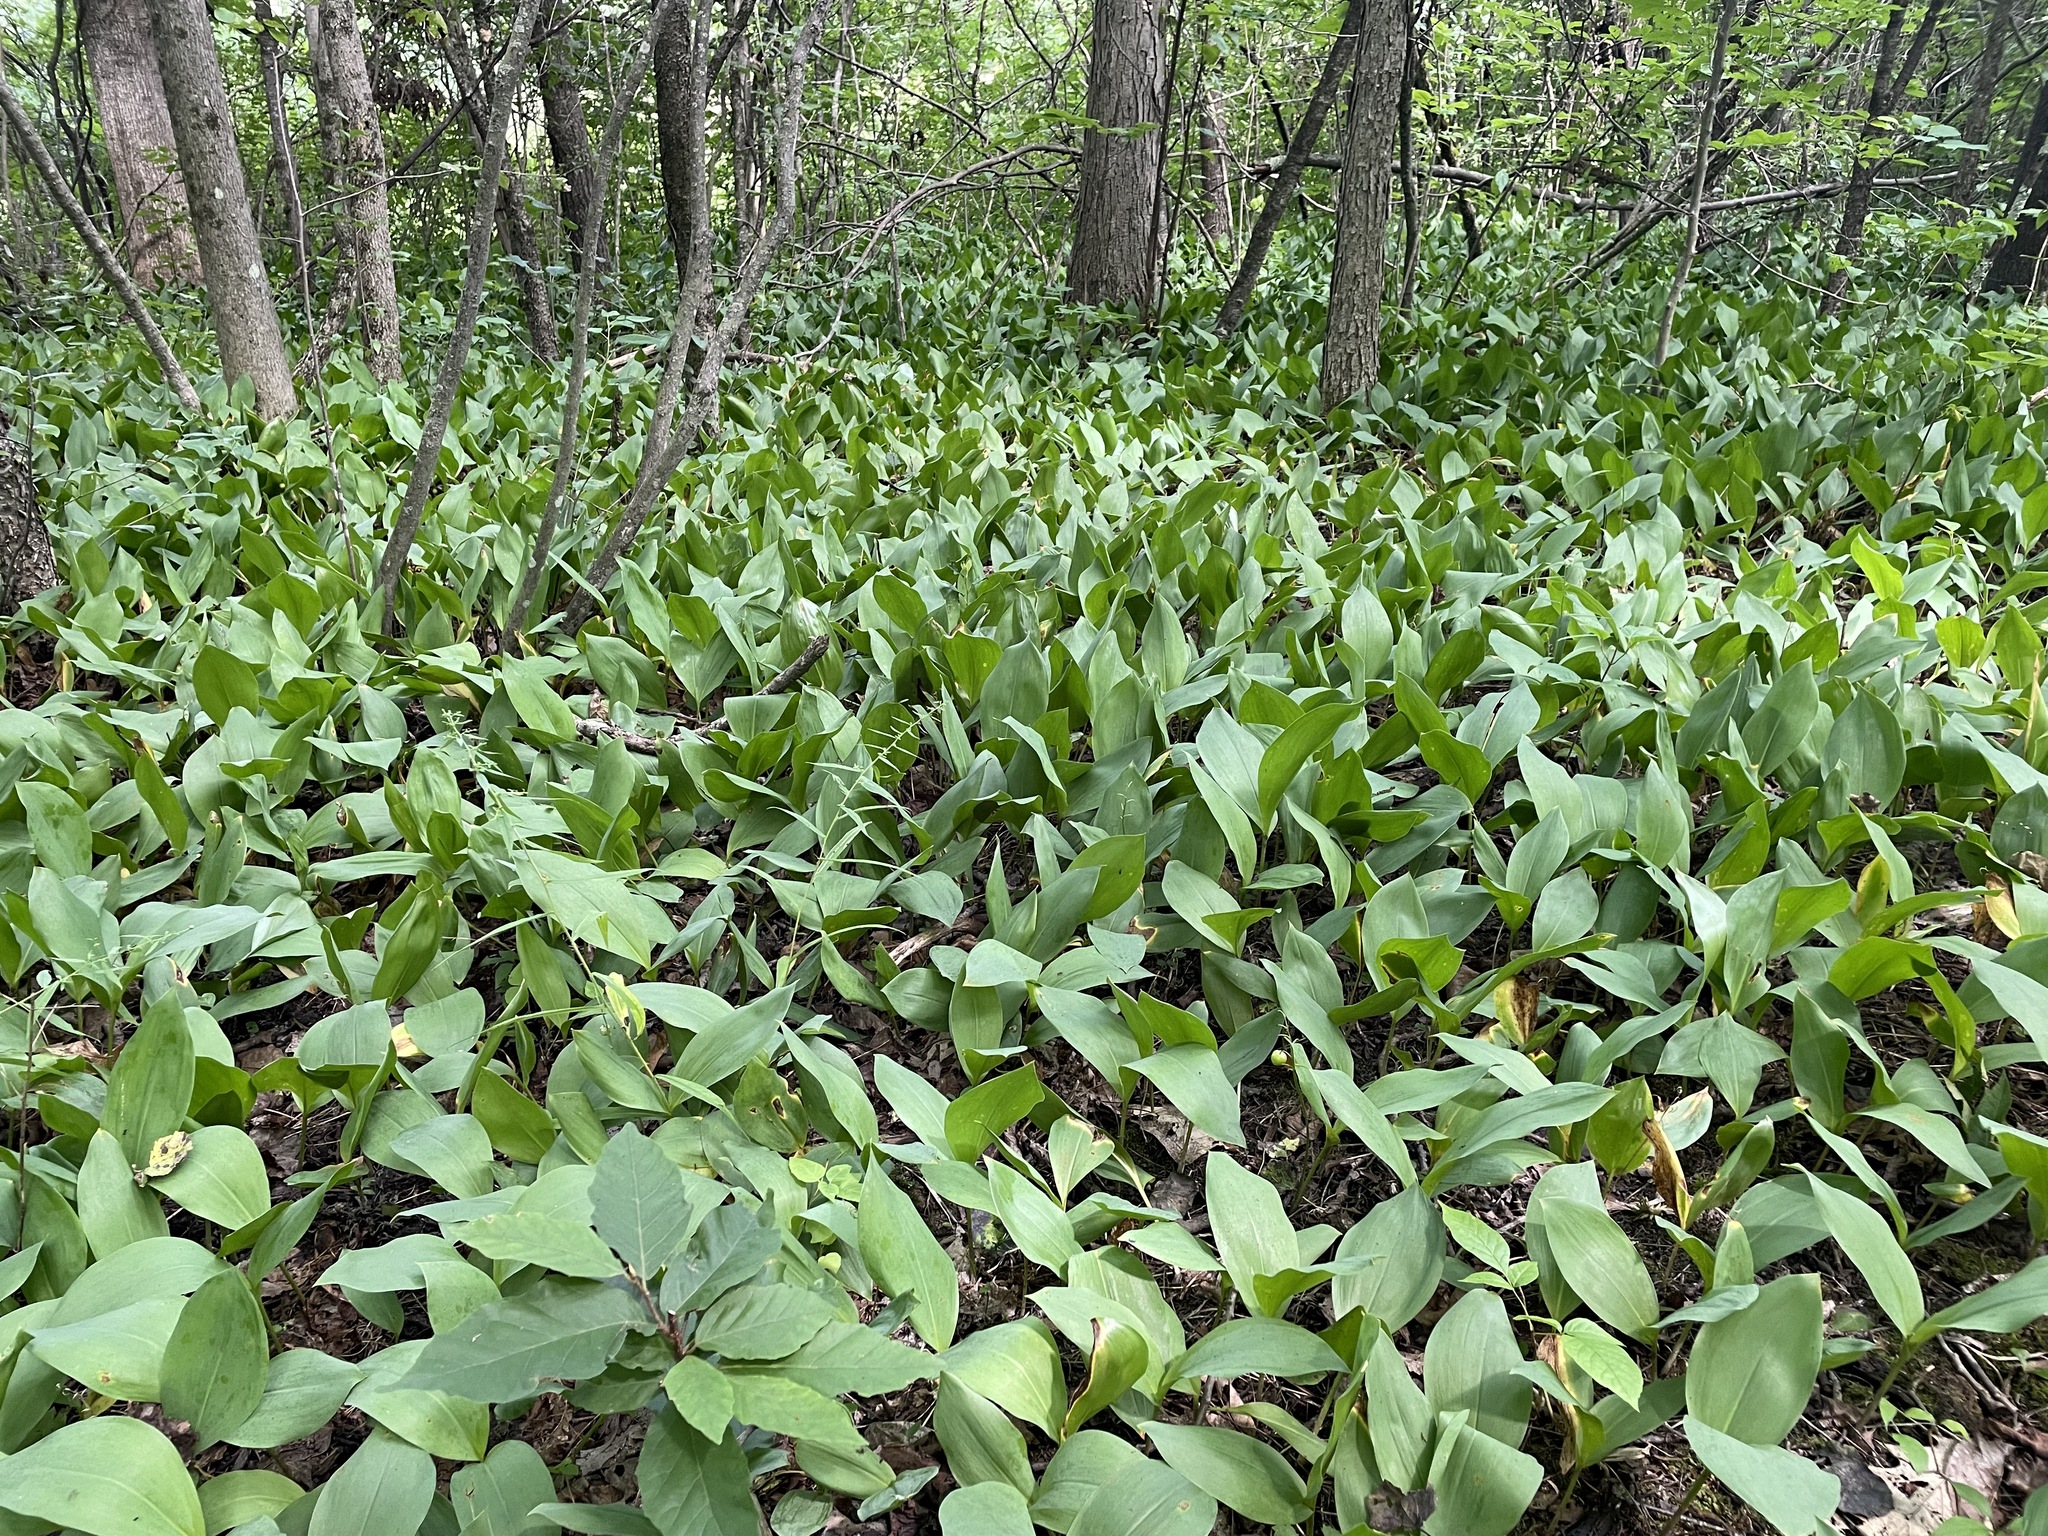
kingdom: Plantae
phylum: Tracheophyta
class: Liliopsida
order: Asparagales
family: Asparagaceae
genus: Convallaria
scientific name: Convallaria majalis
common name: Lily-of-the-valley
